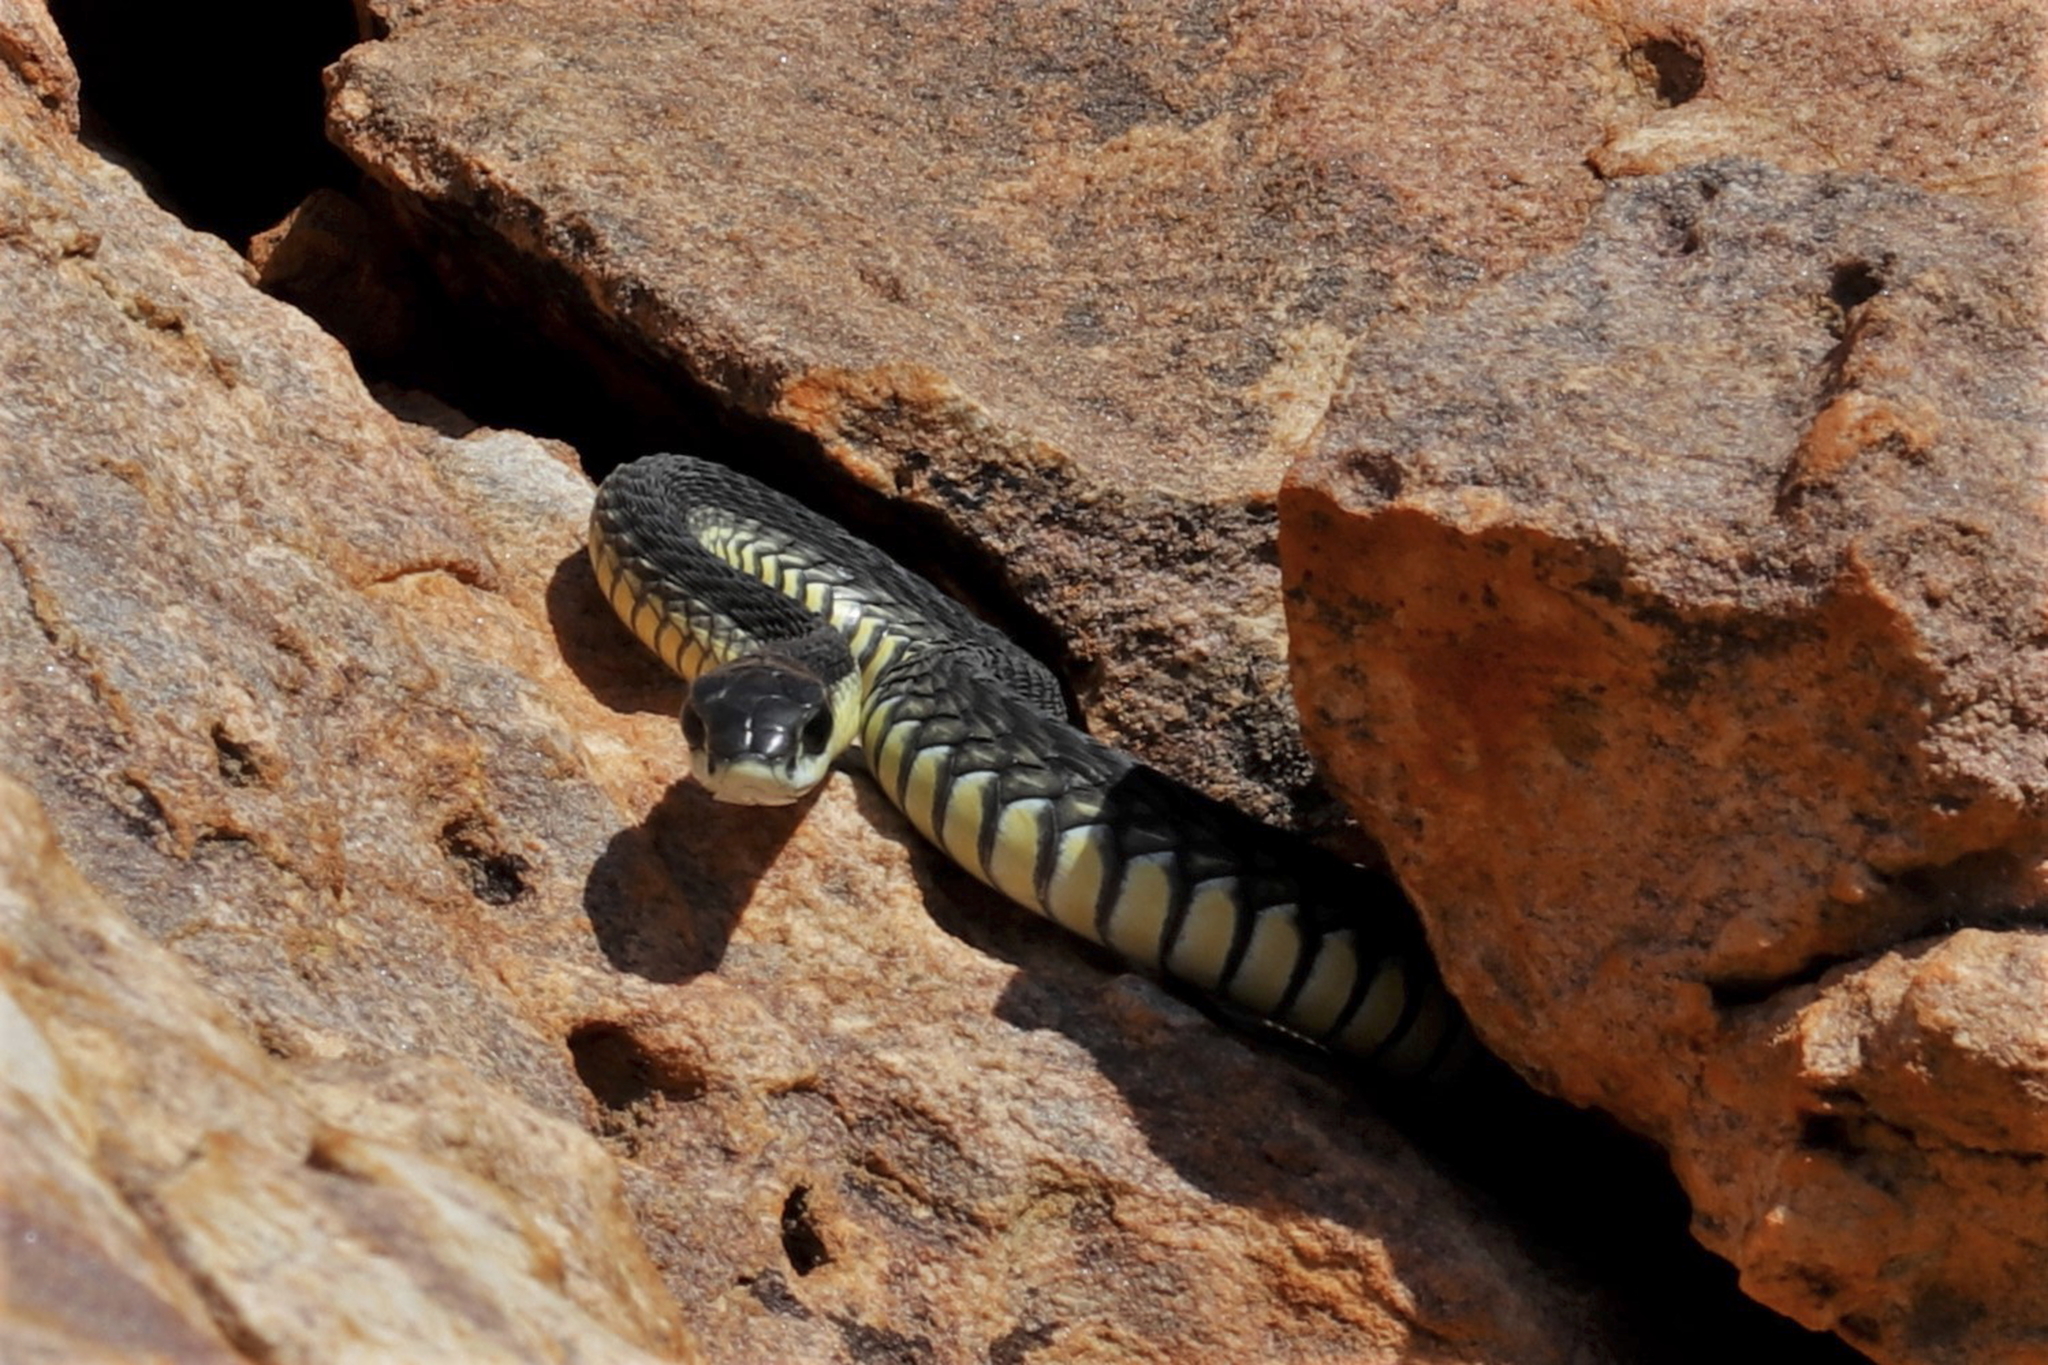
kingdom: Animalia
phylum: Chordata
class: Squamata
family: Colubridae
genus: Dispholidus
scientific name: Dispholidus typus
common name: Boomslang
